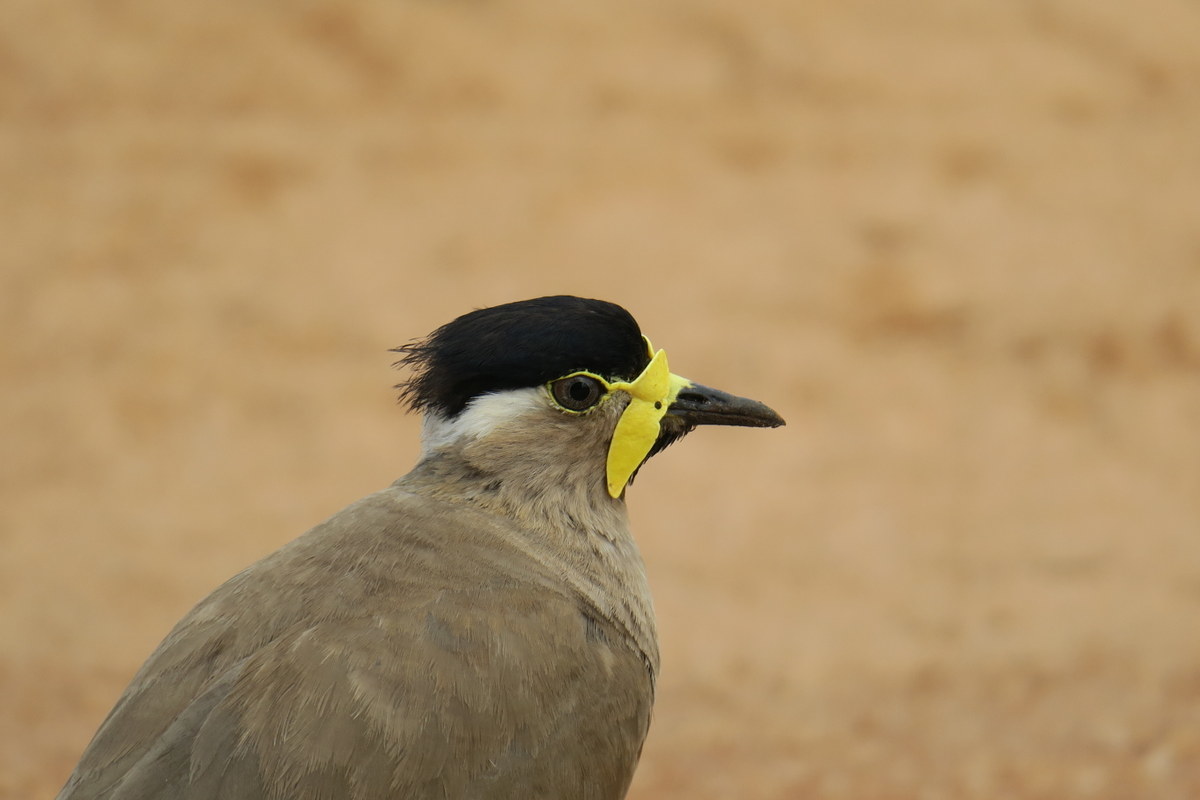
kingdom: Animalia
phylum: Chordata
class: Aves
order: Charadriiformes
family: Charadriidae
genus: Vanellus
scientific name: Vanellus malabaricus
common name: Yellow-wattled lapwing
